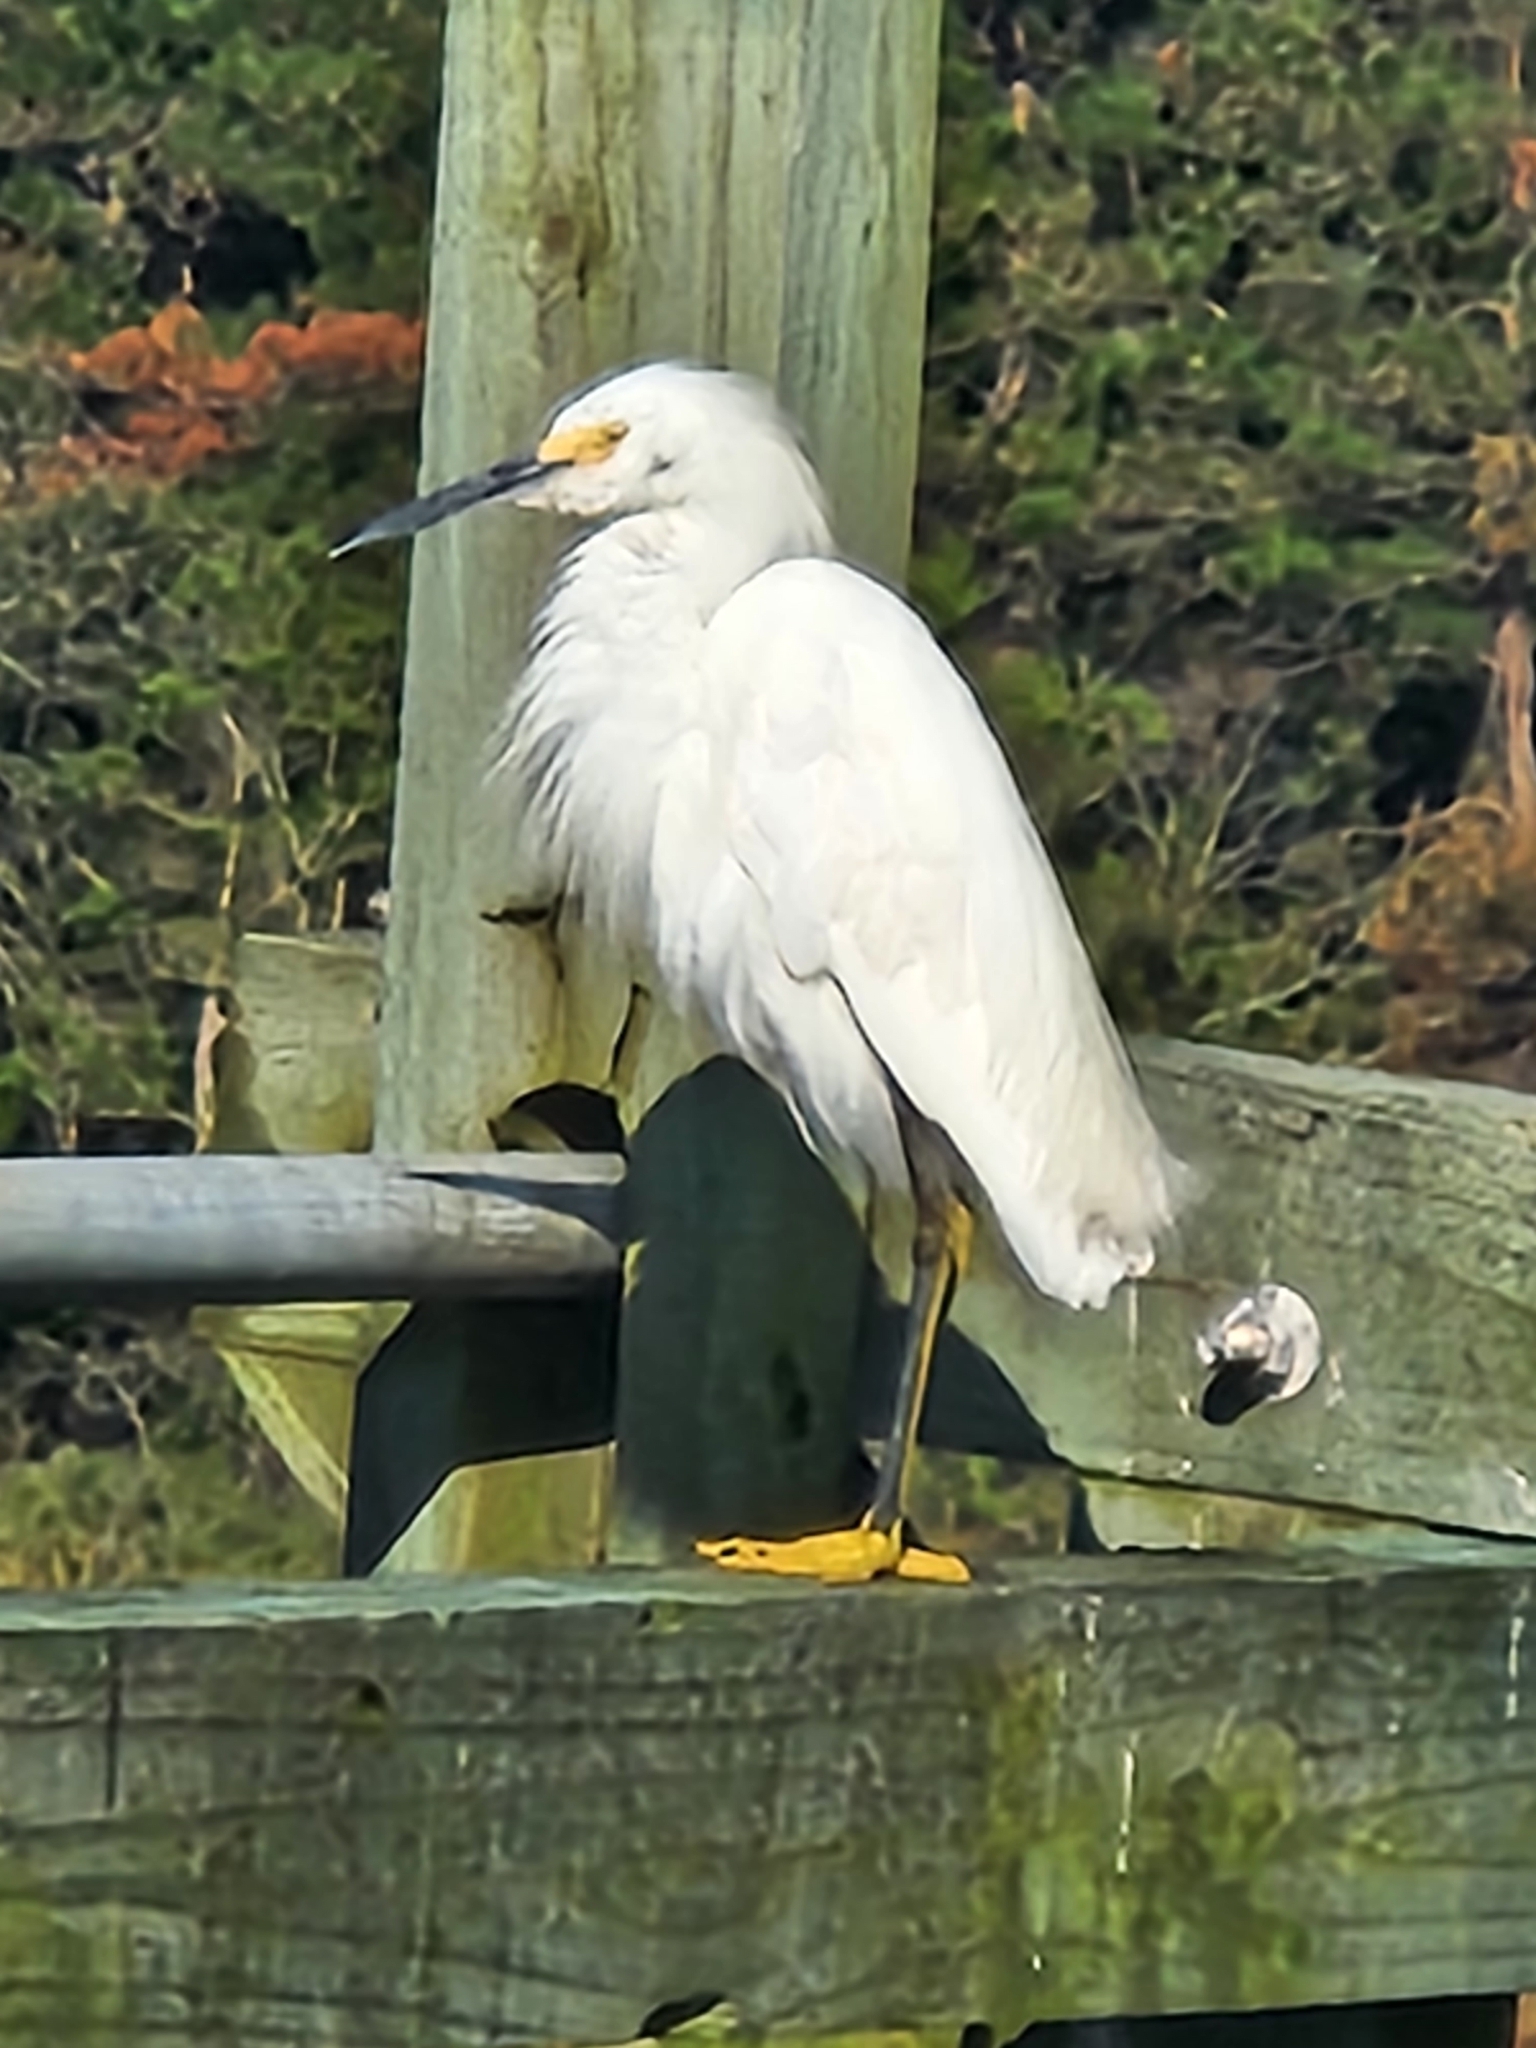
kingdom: Animalia
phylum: Chordata
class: Aves
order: Pelecaniformes
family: Ardeidae
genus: Egretta
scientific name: Egretta thula
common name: Snowy egret
